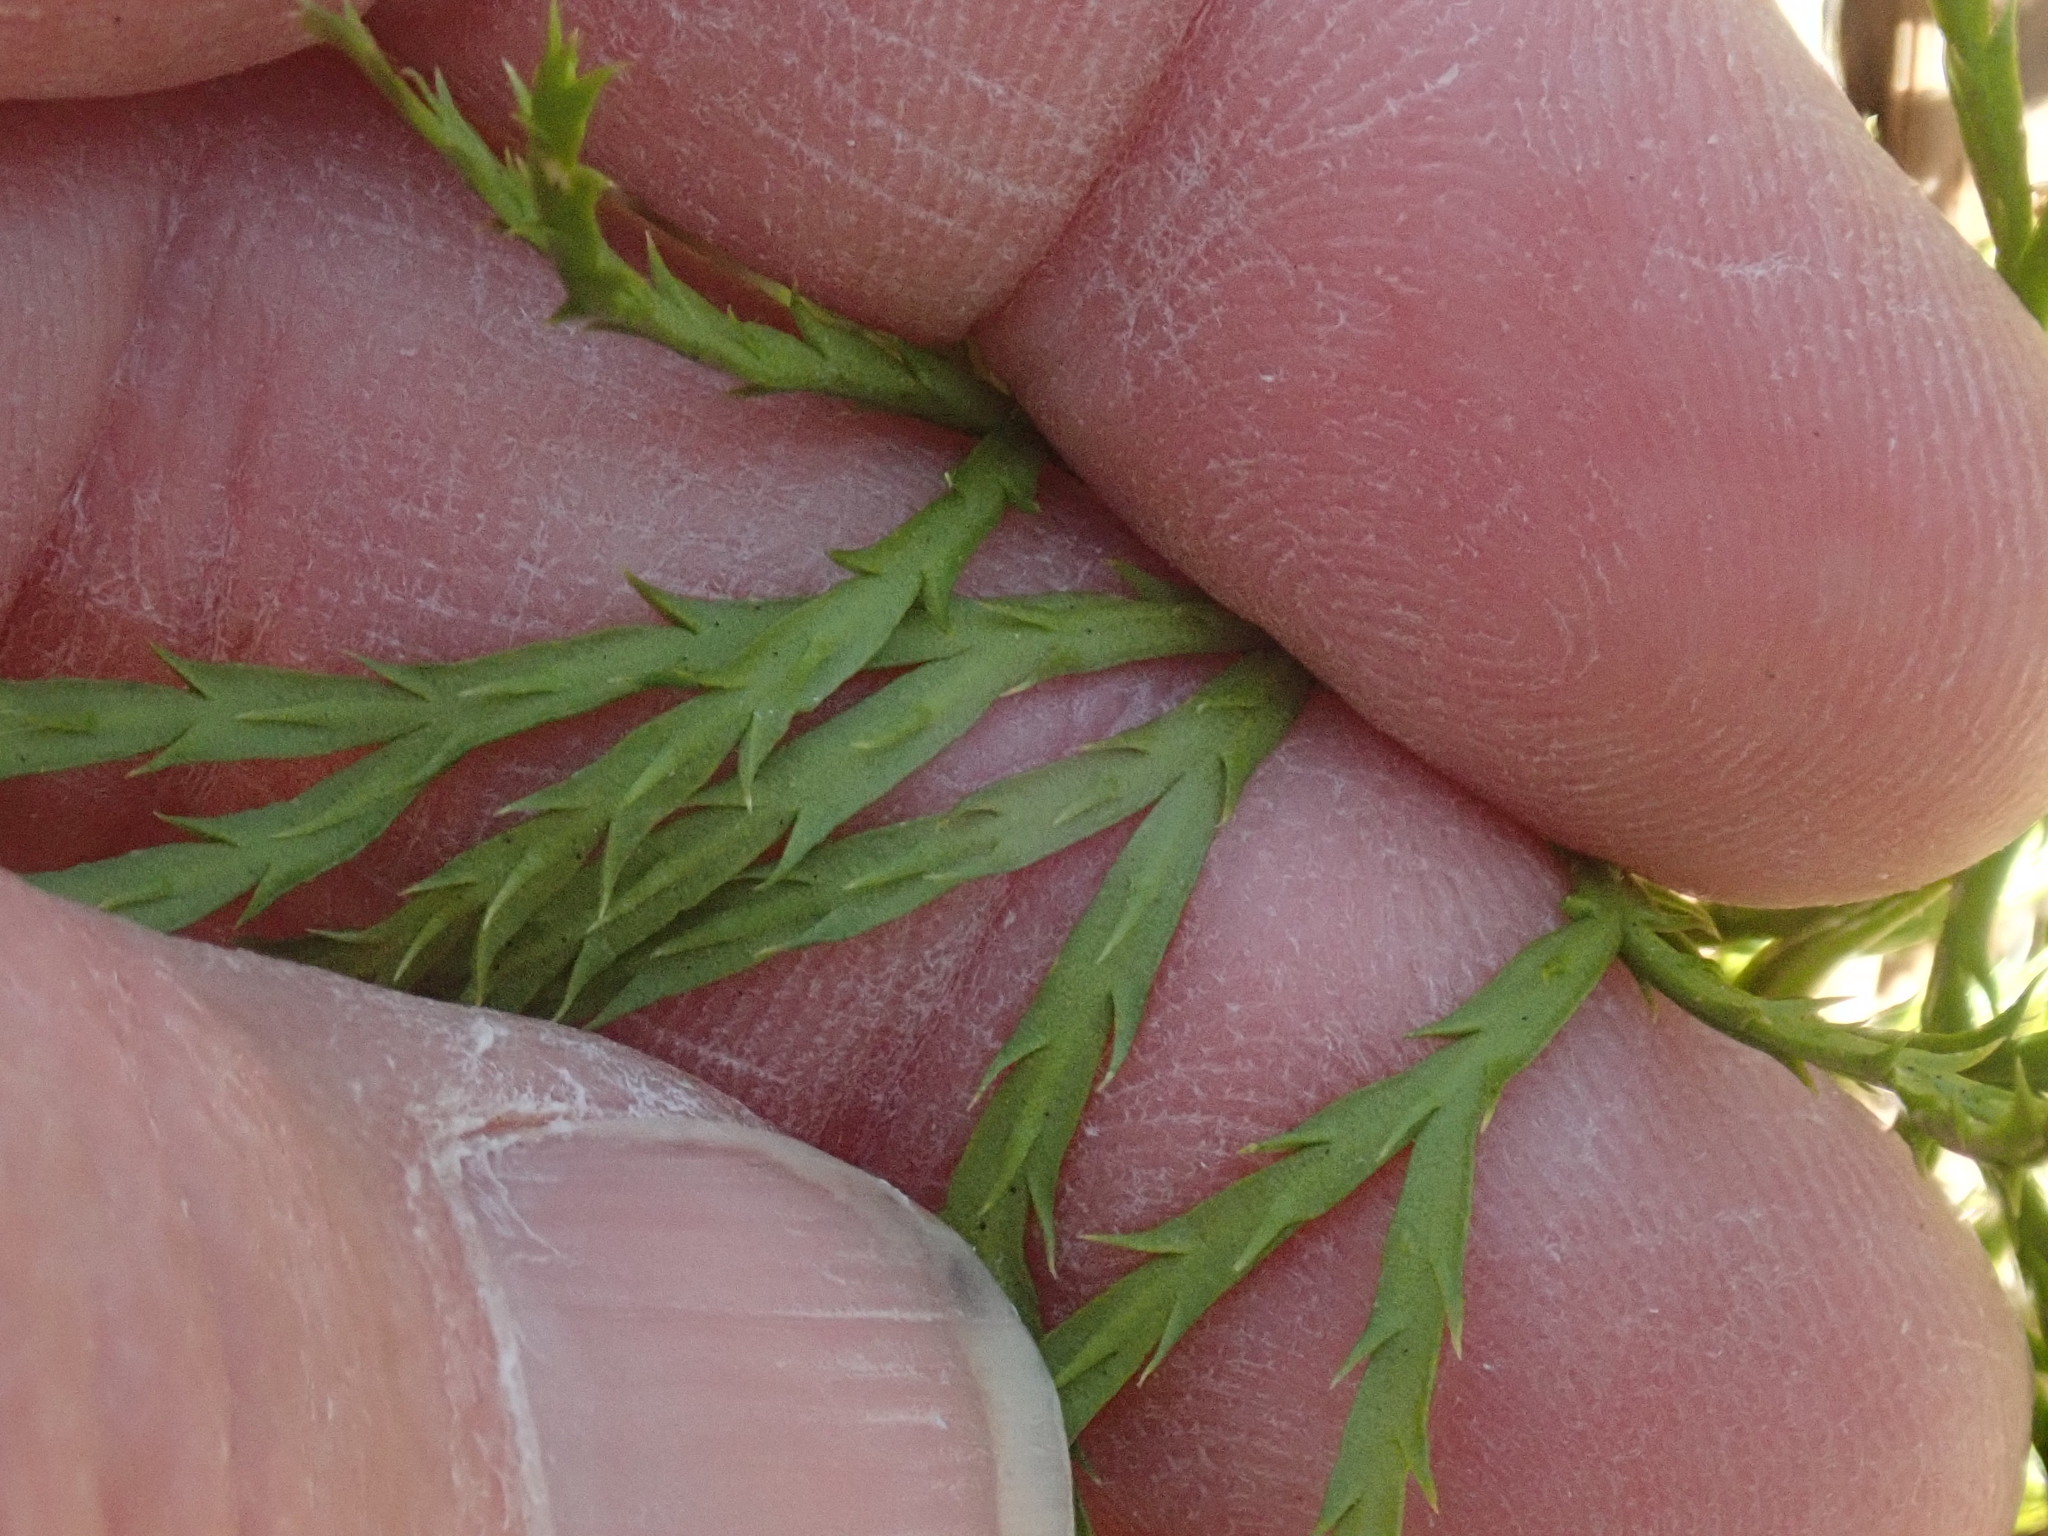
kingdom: Plantae
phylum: Tracheophyta
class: Lycopodiopsida
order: Lycopodiales
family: Lycopodiaceae
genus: Diphasiastrum
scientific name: Diphasiastrum digitatum
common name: Southern running-pine
